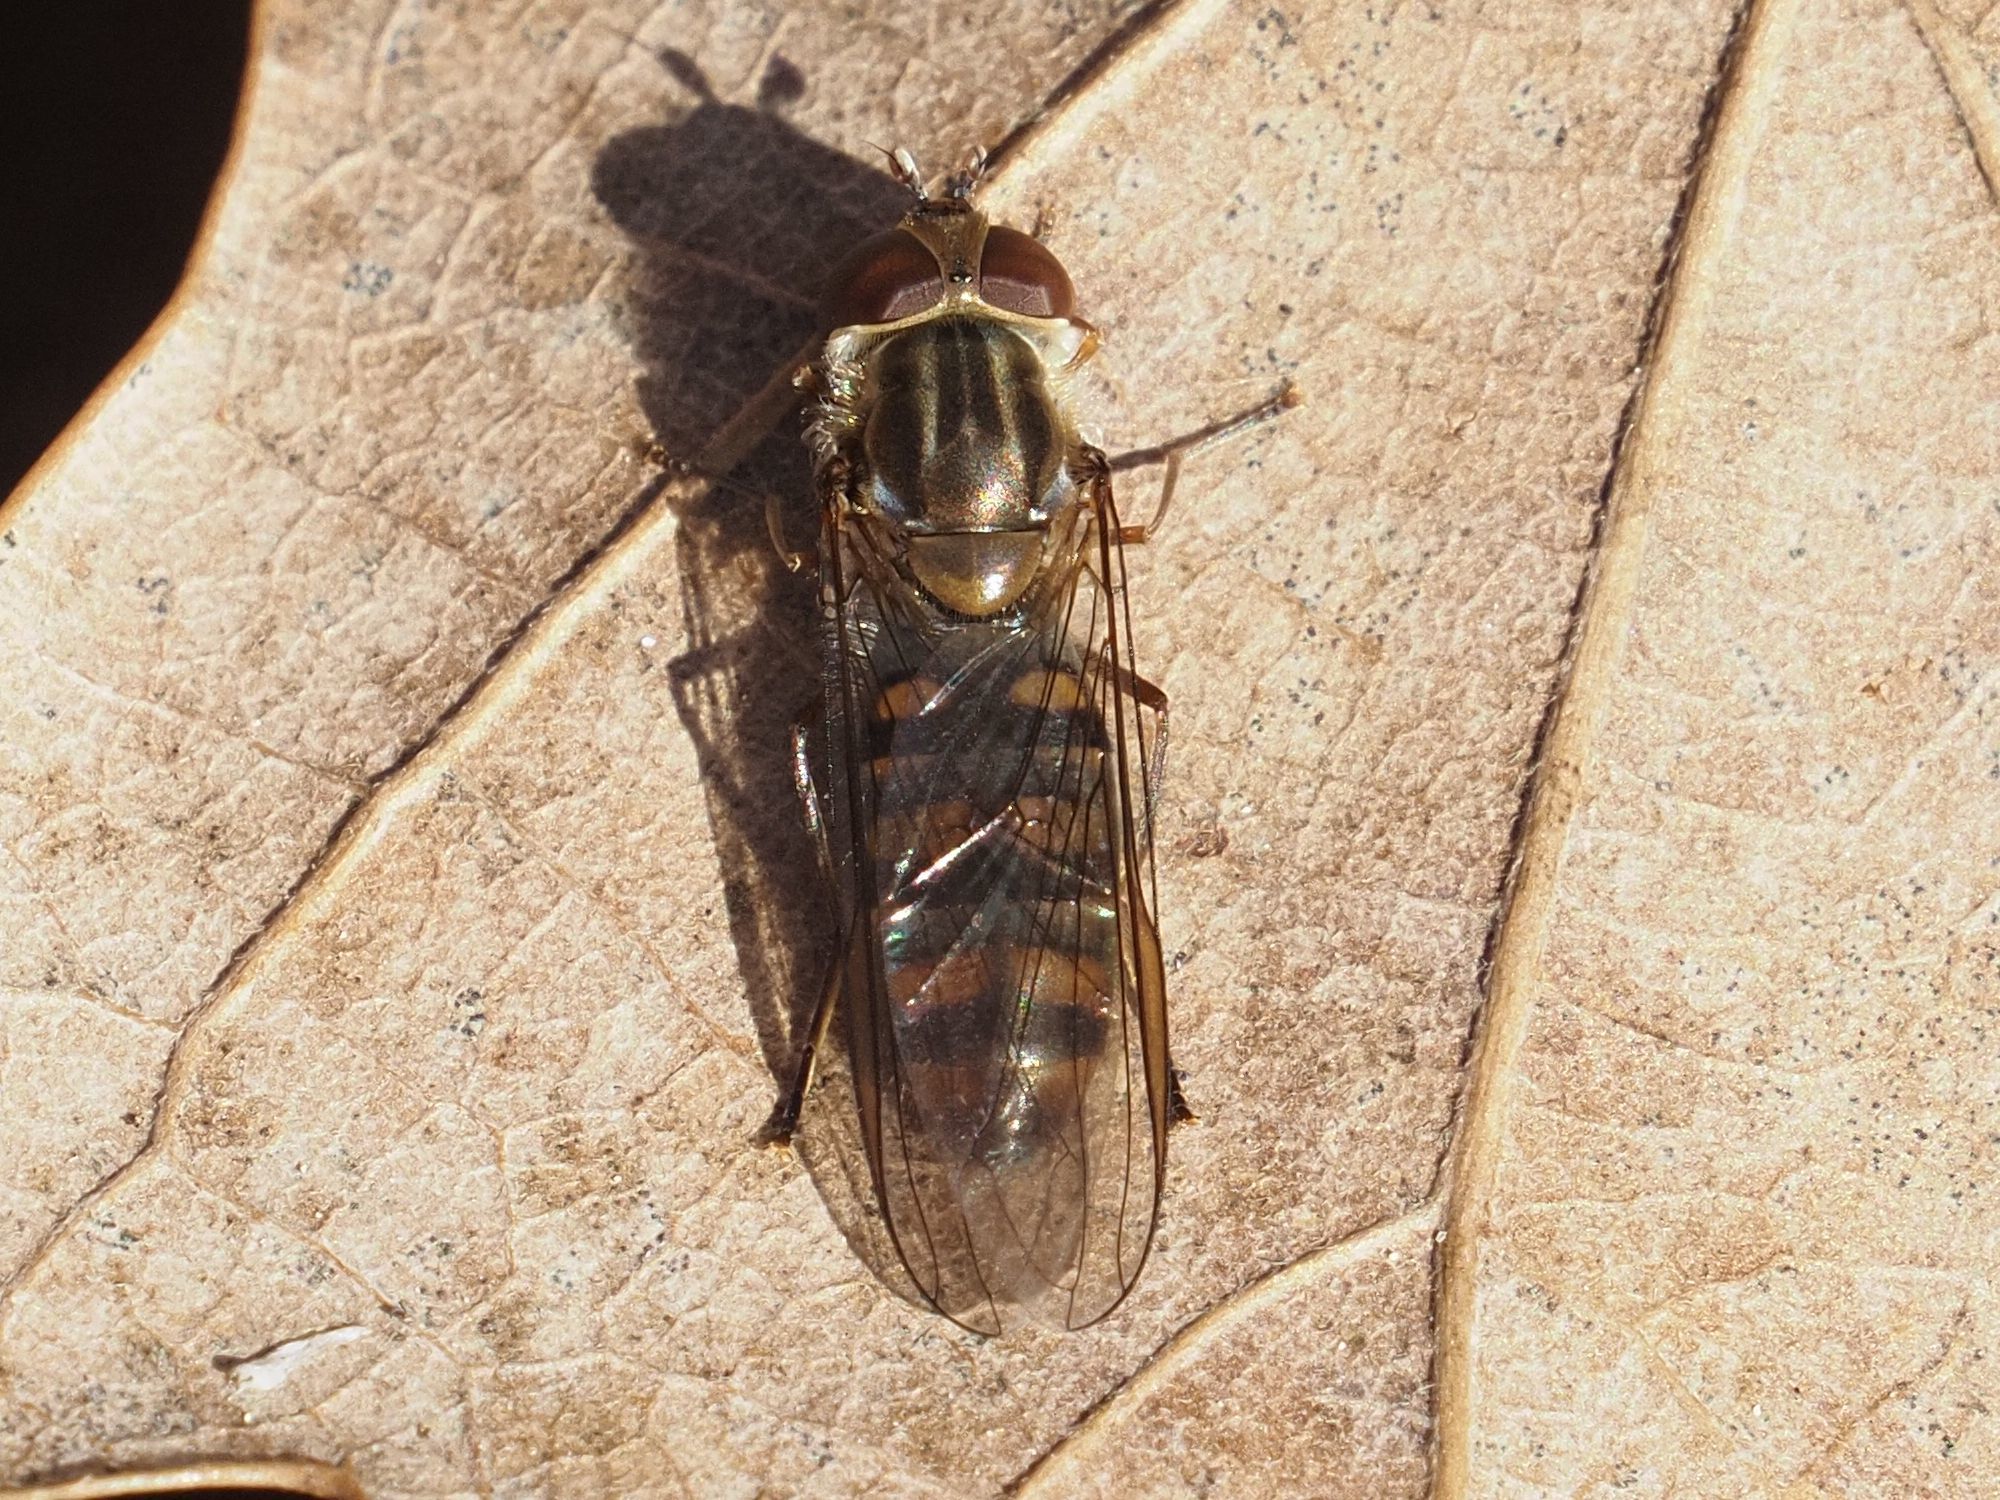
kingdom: Animalia
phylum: Arthropoda
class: Insecta
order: Diptera
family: Syrphidae
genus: Episyrphus
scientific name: Episyrphus balteatus
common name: Marmalade hoverfly
